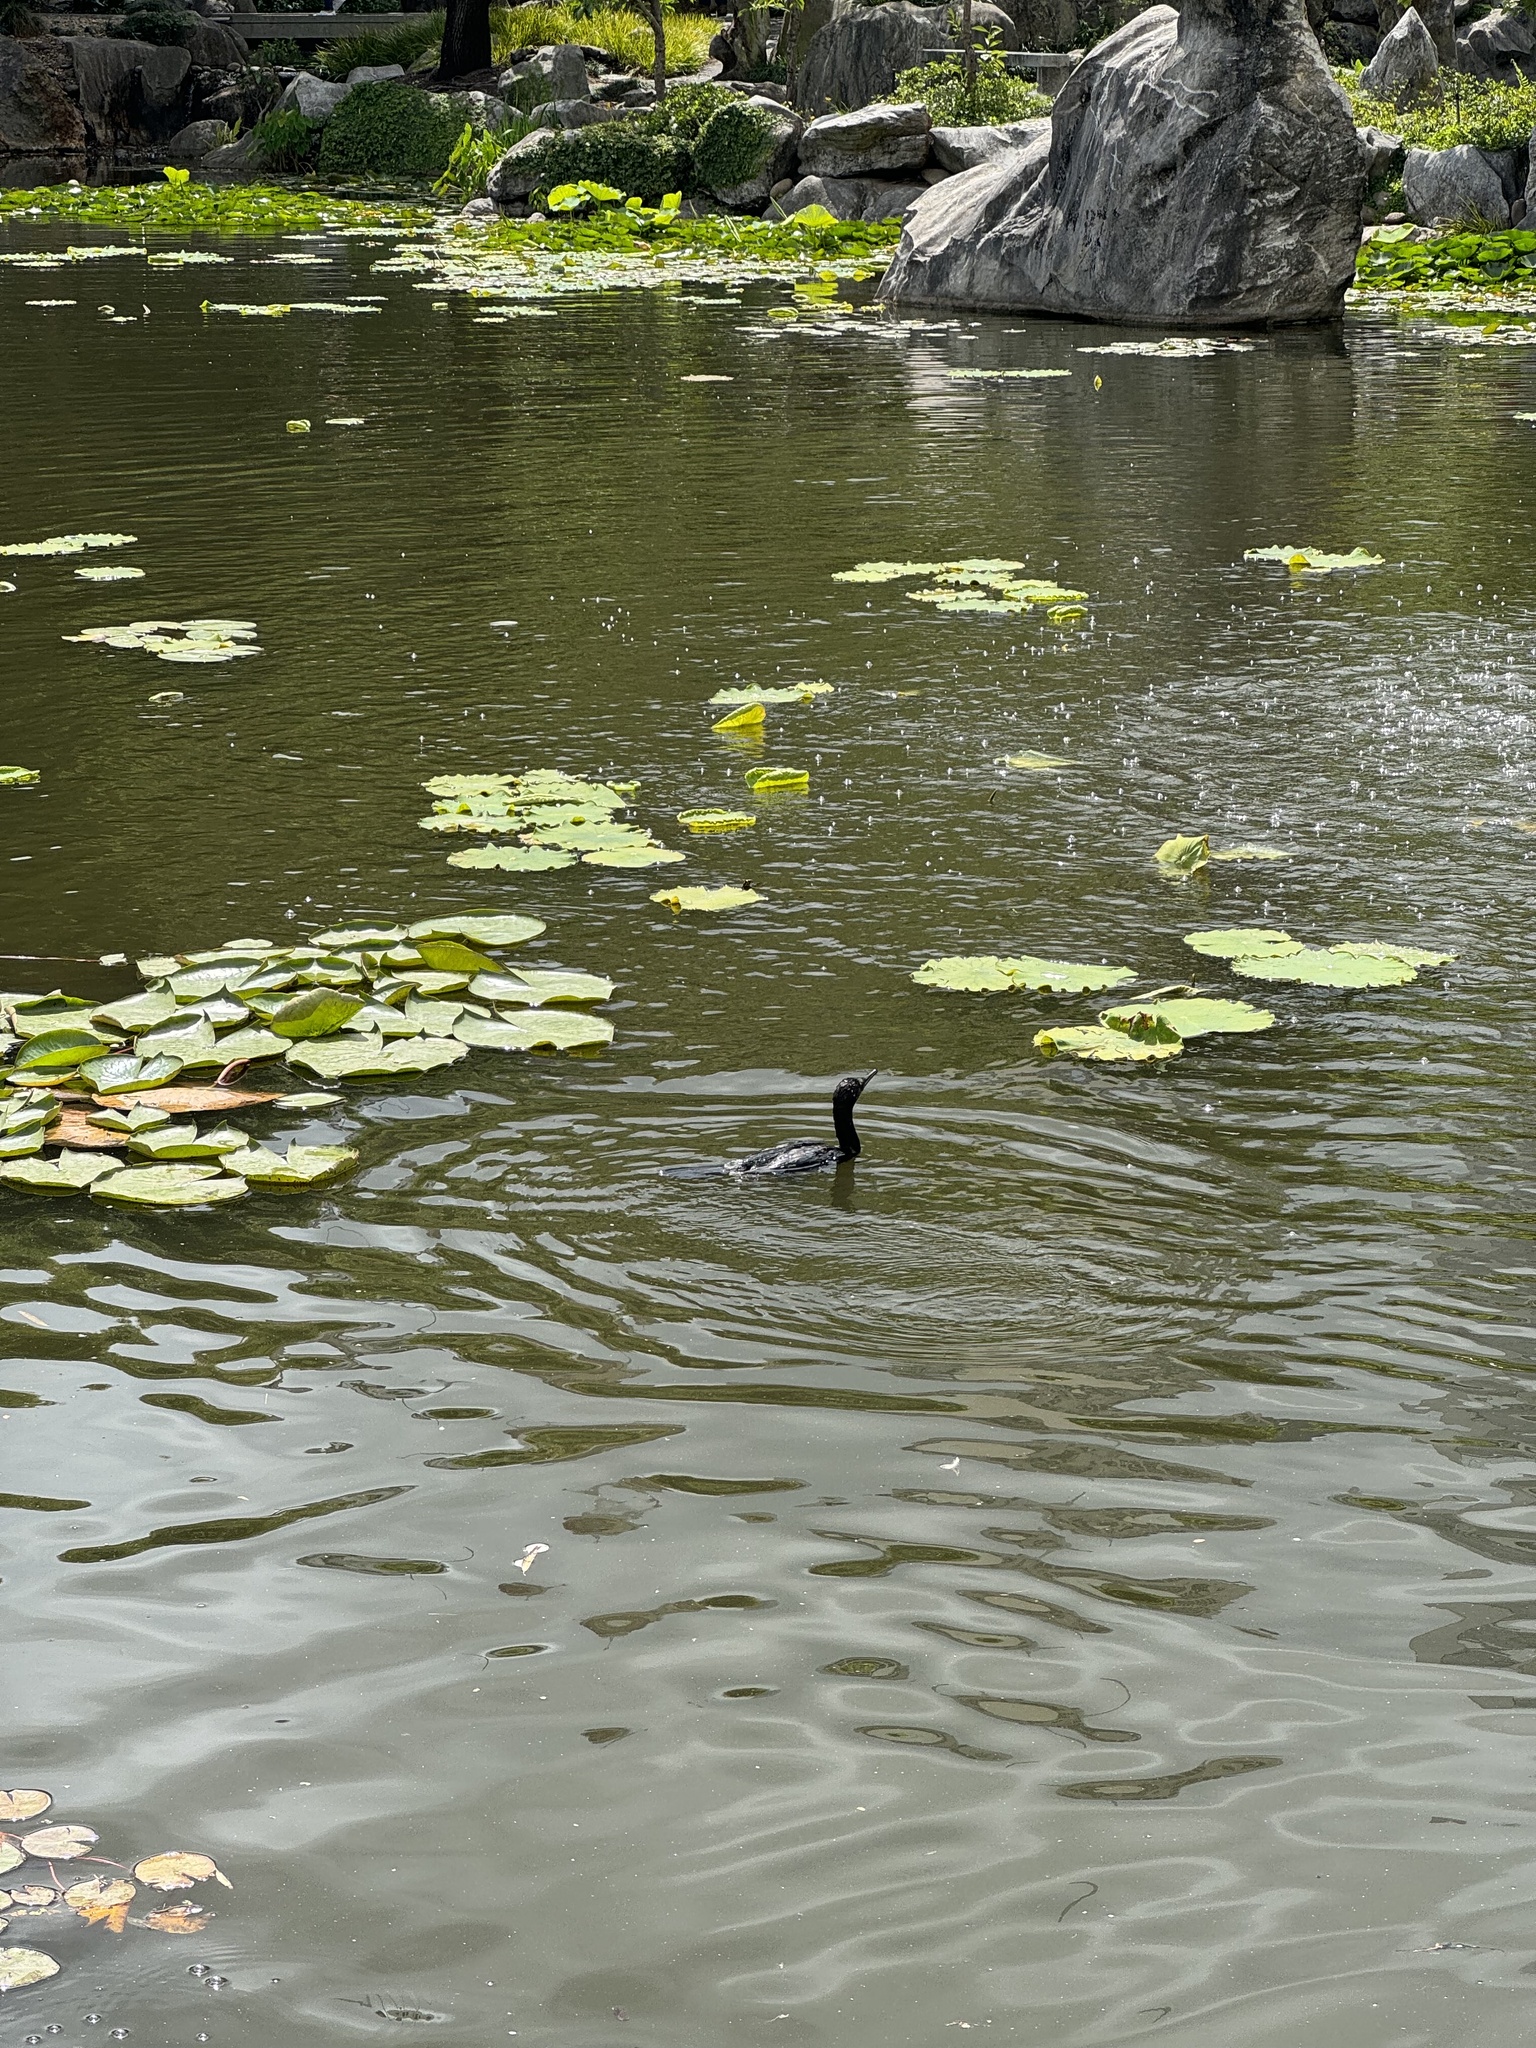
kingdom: Animalia
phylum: Chordata
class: Aves
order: Suliformes
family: Phalacrocoracidae
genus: Phalacrocorax
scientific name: Phalacrocorax sulcirostris
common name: Little black cormorant
